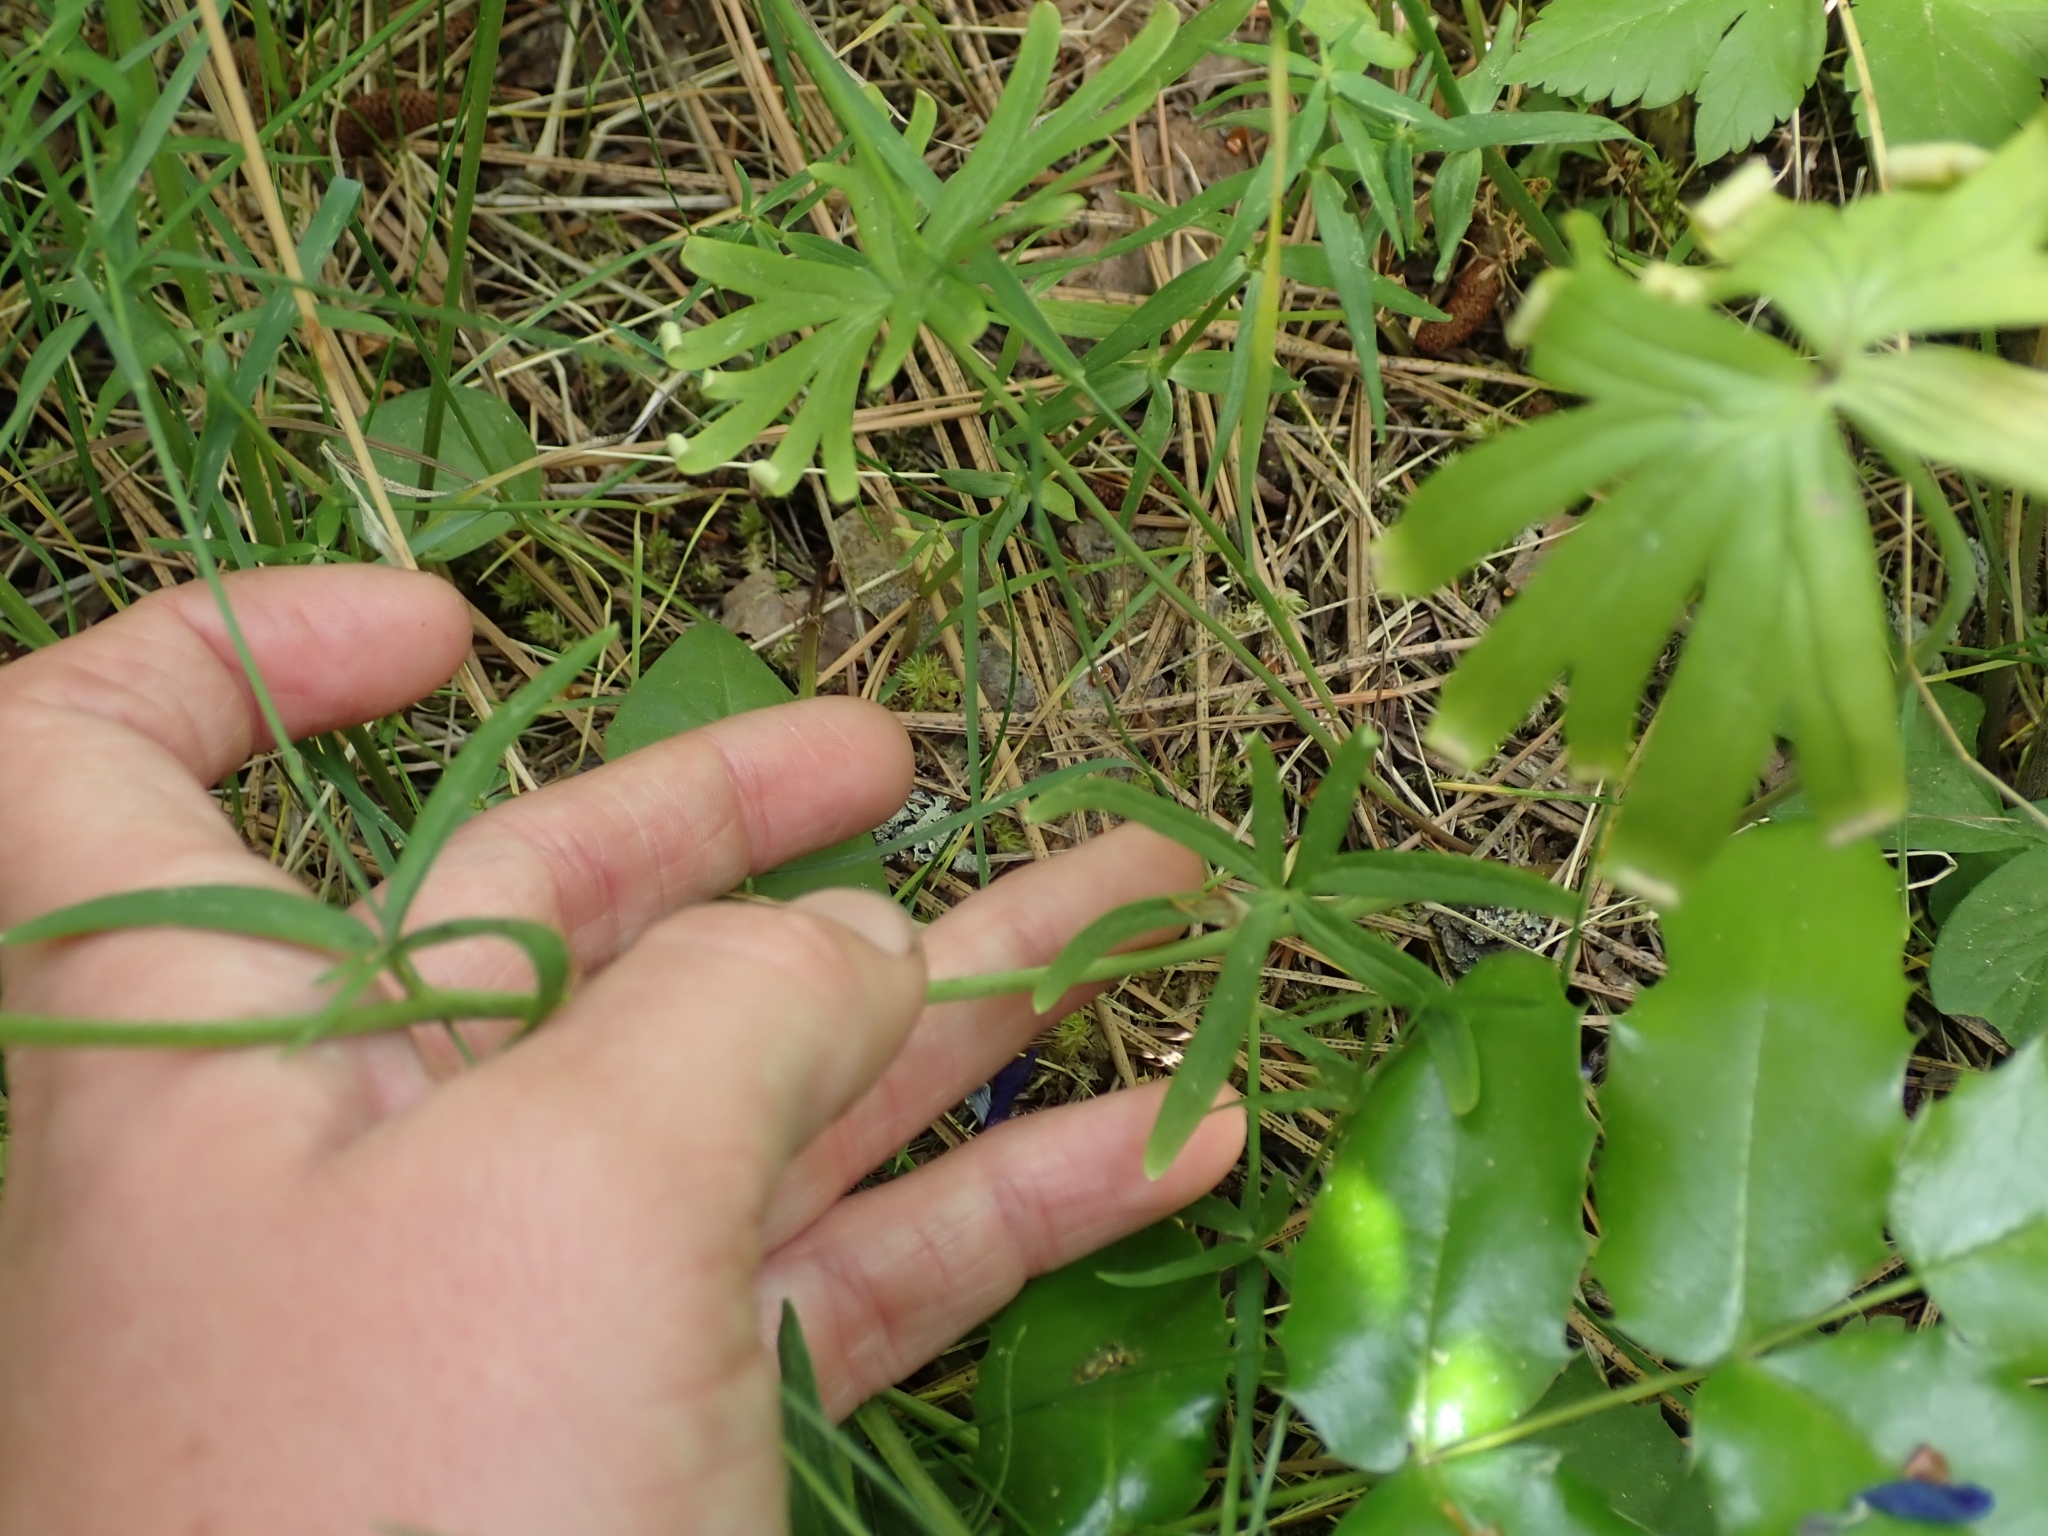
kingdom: Plantae
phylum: Tracheophyta
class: Magnoliopsida
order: Ranunculales
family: Ranunculaceae
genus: Delphinium
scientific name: Delphinium nuttallianum
